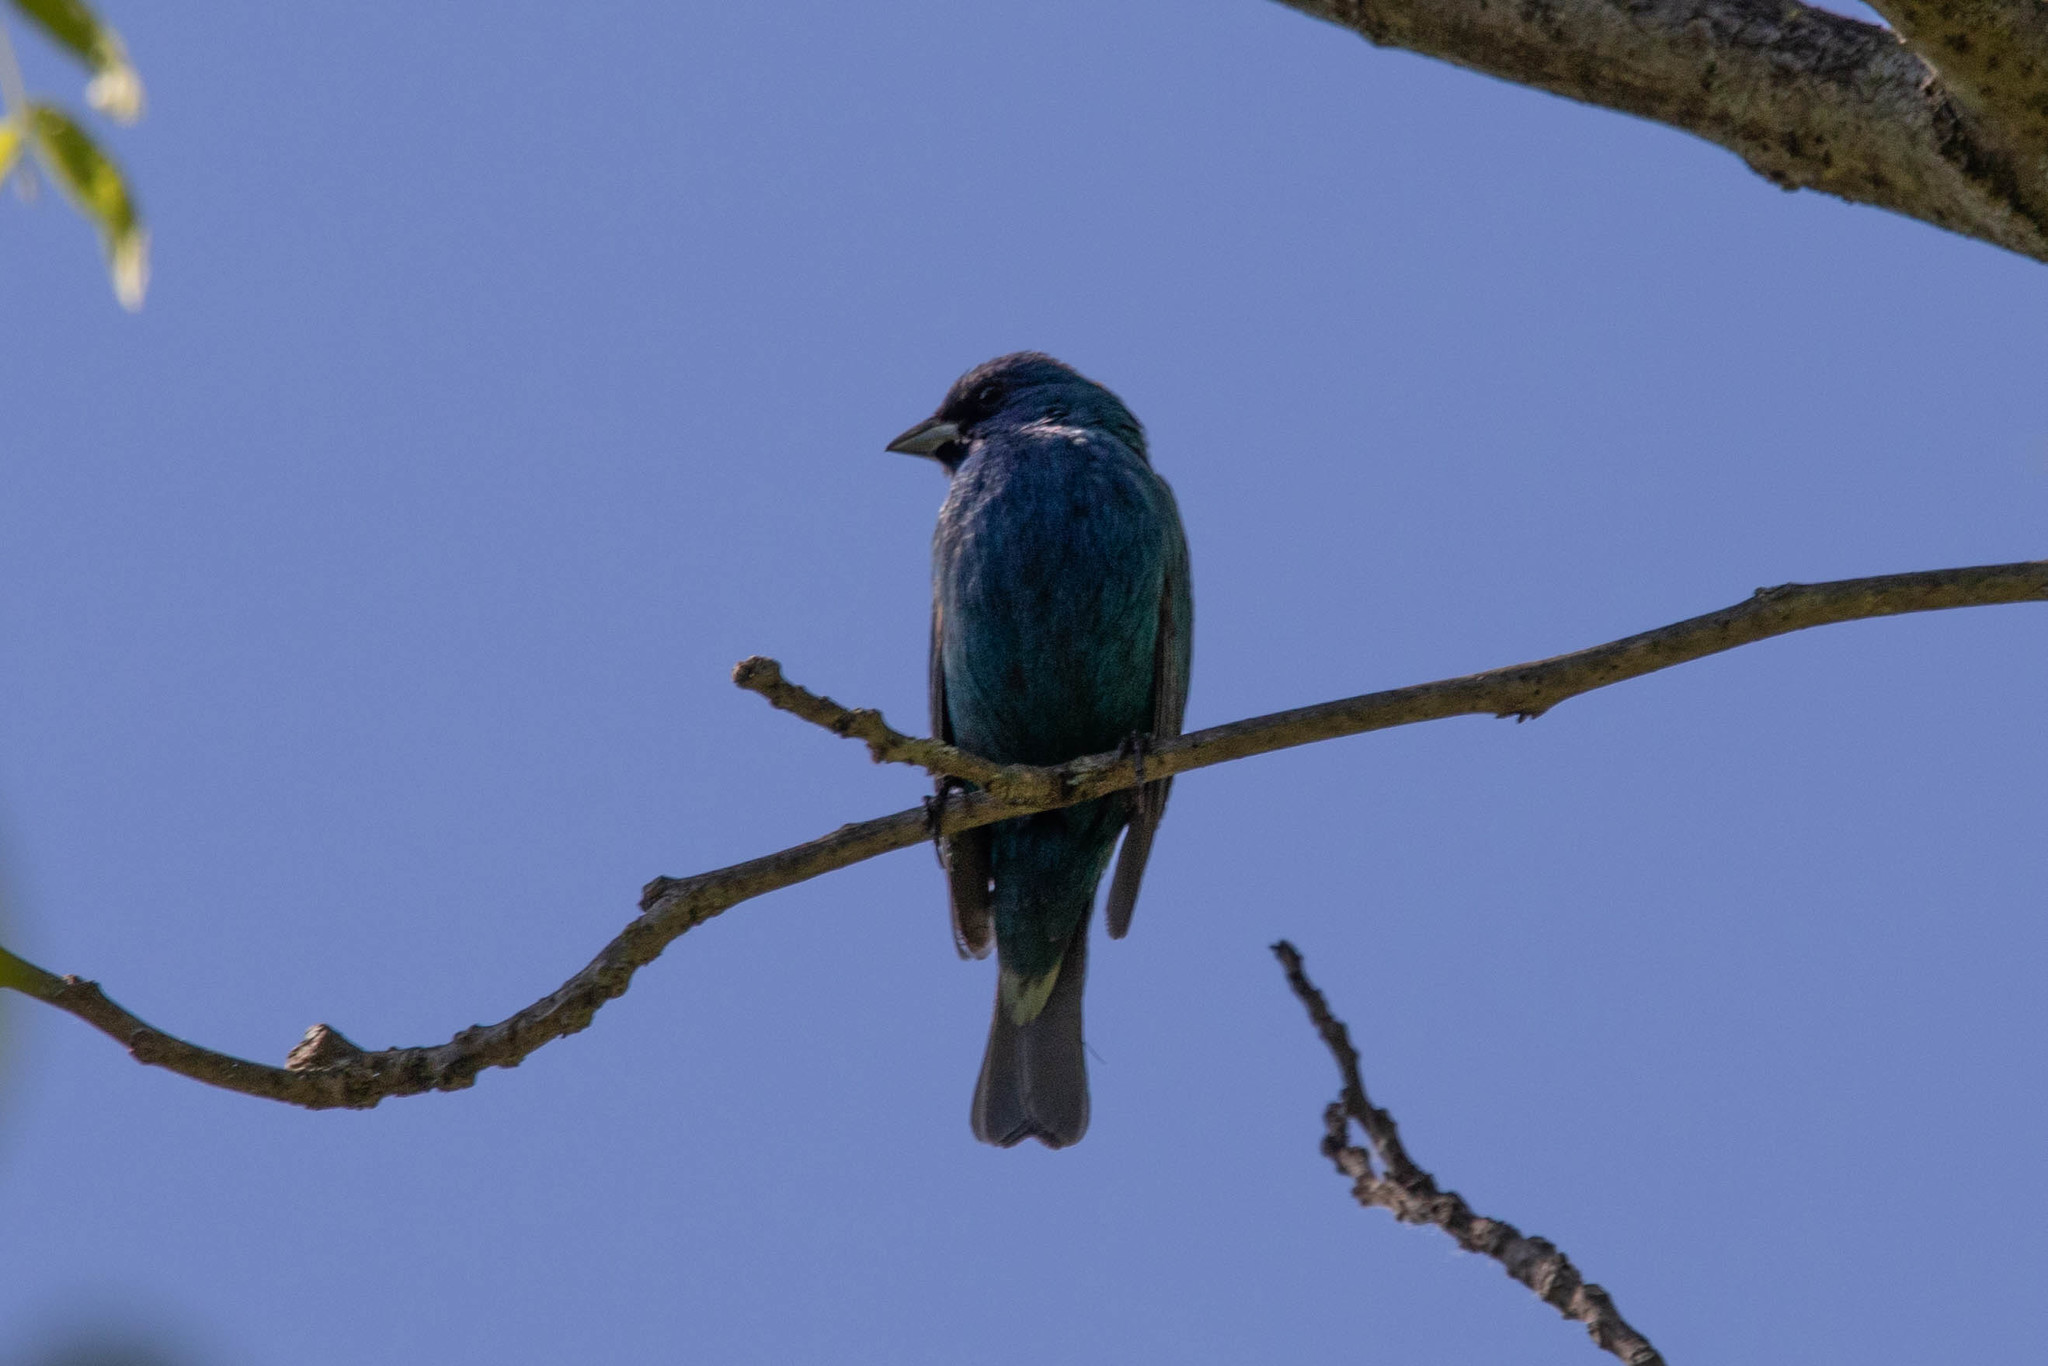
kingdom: Animalia
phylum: Chordata
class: Aves
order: Passeriformes
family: Cardinalidae
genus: Passerina
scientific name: Passerina cyanea
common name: Indigo bunting
